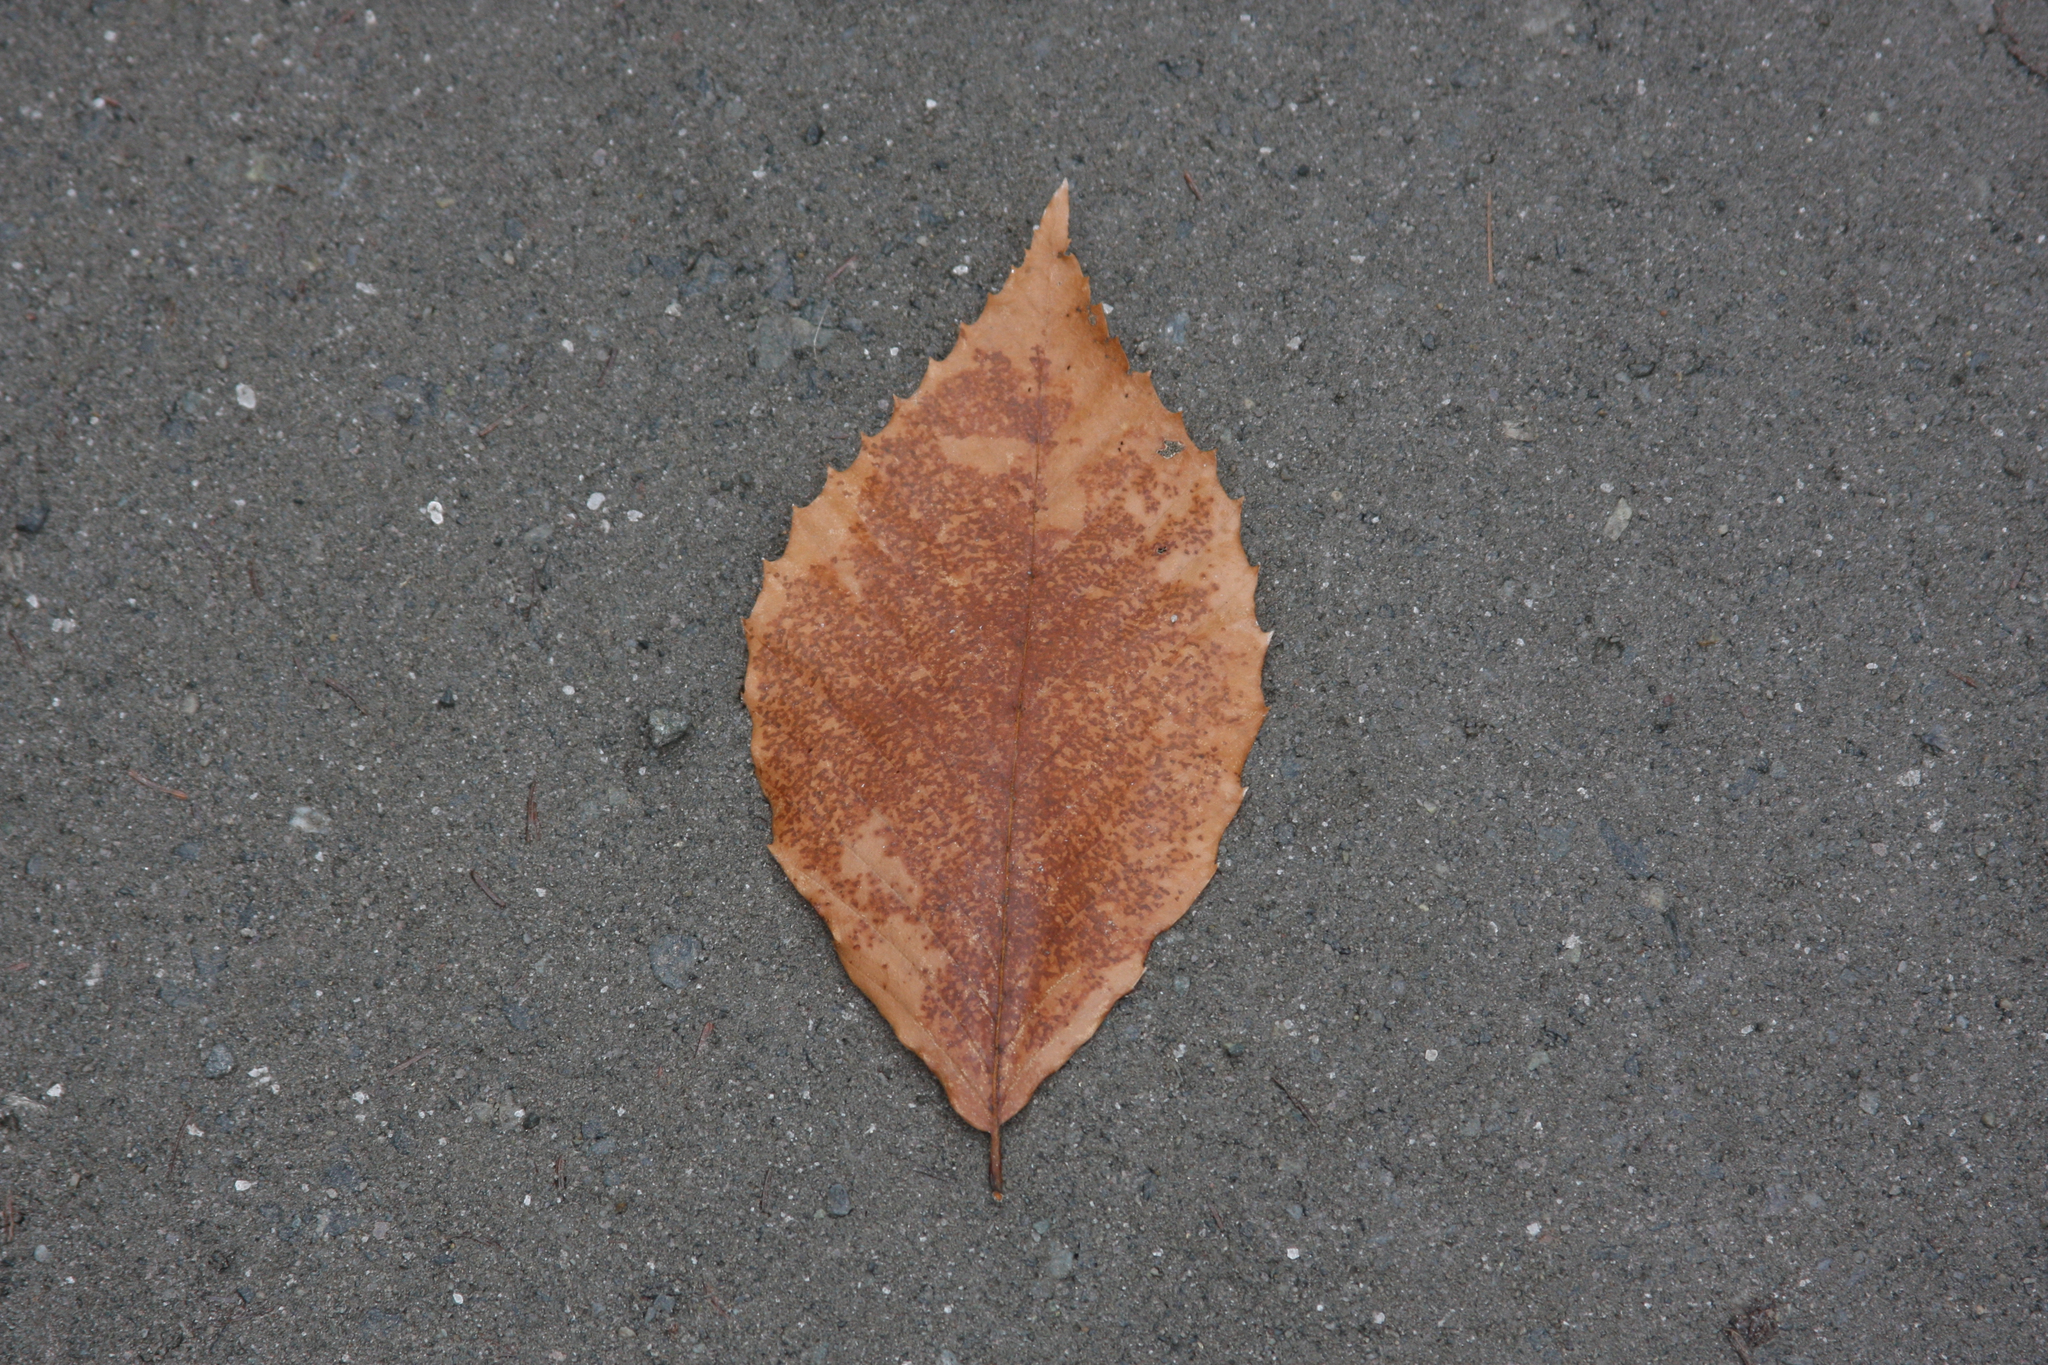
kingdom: Plantae
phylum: Tracheophyta
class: Magnoliopsida
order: Fagales
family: Fagaceae
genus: Fagus
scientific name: Fagus grandifolia
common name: American beech
